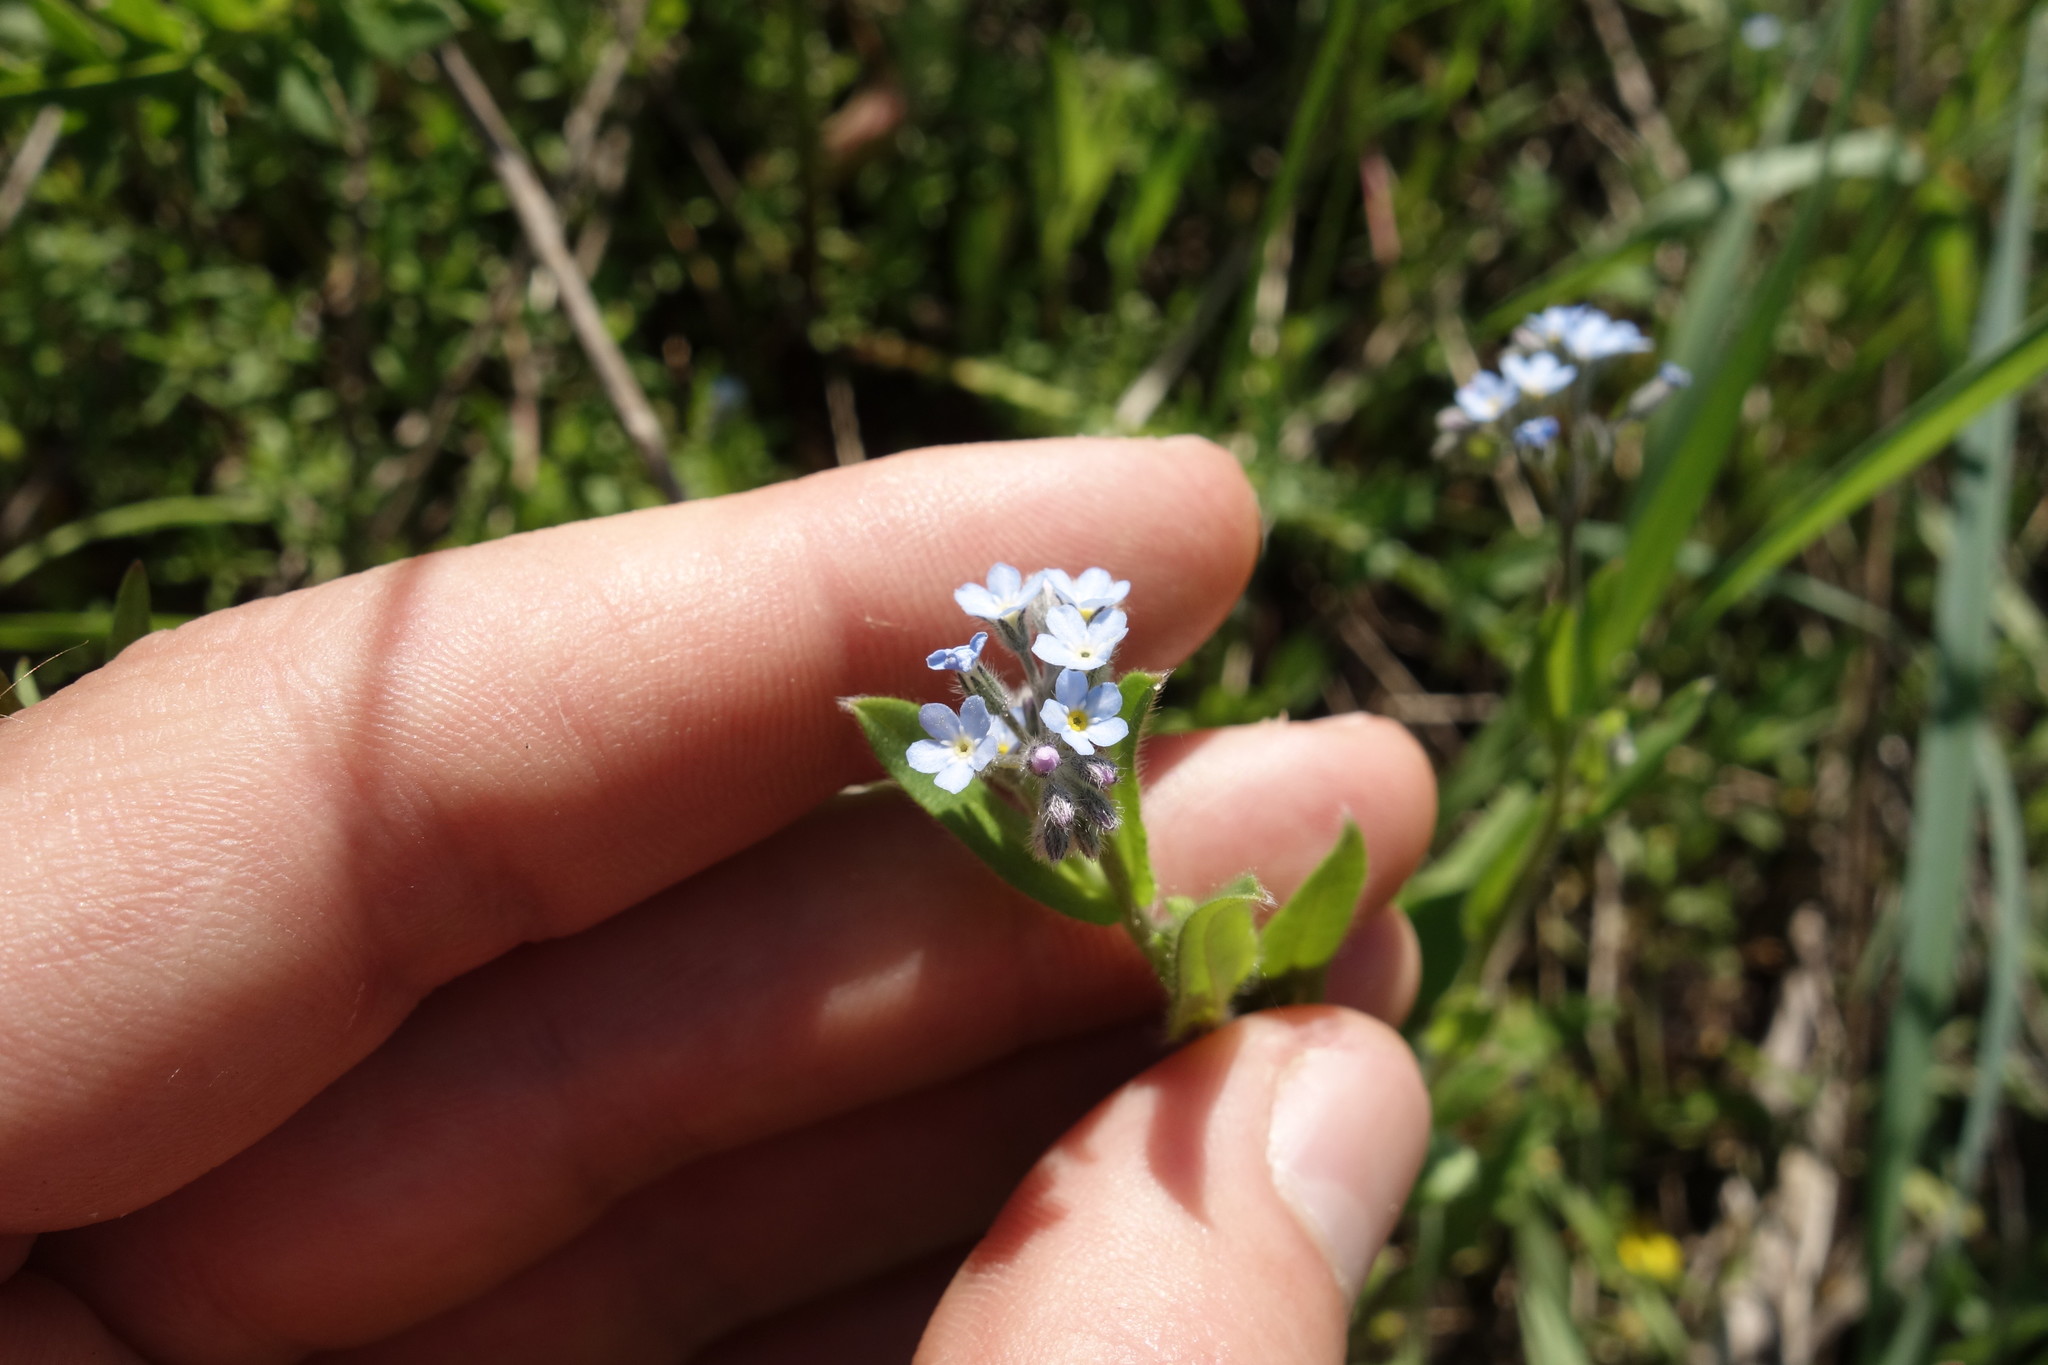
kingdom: Plantae
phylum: Tracheophyta
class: Magnoliopsida
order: Boraginales
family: Boraginaceae
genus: Myosotis
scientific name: Myosotis arvensis
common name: Field forget-me-not
